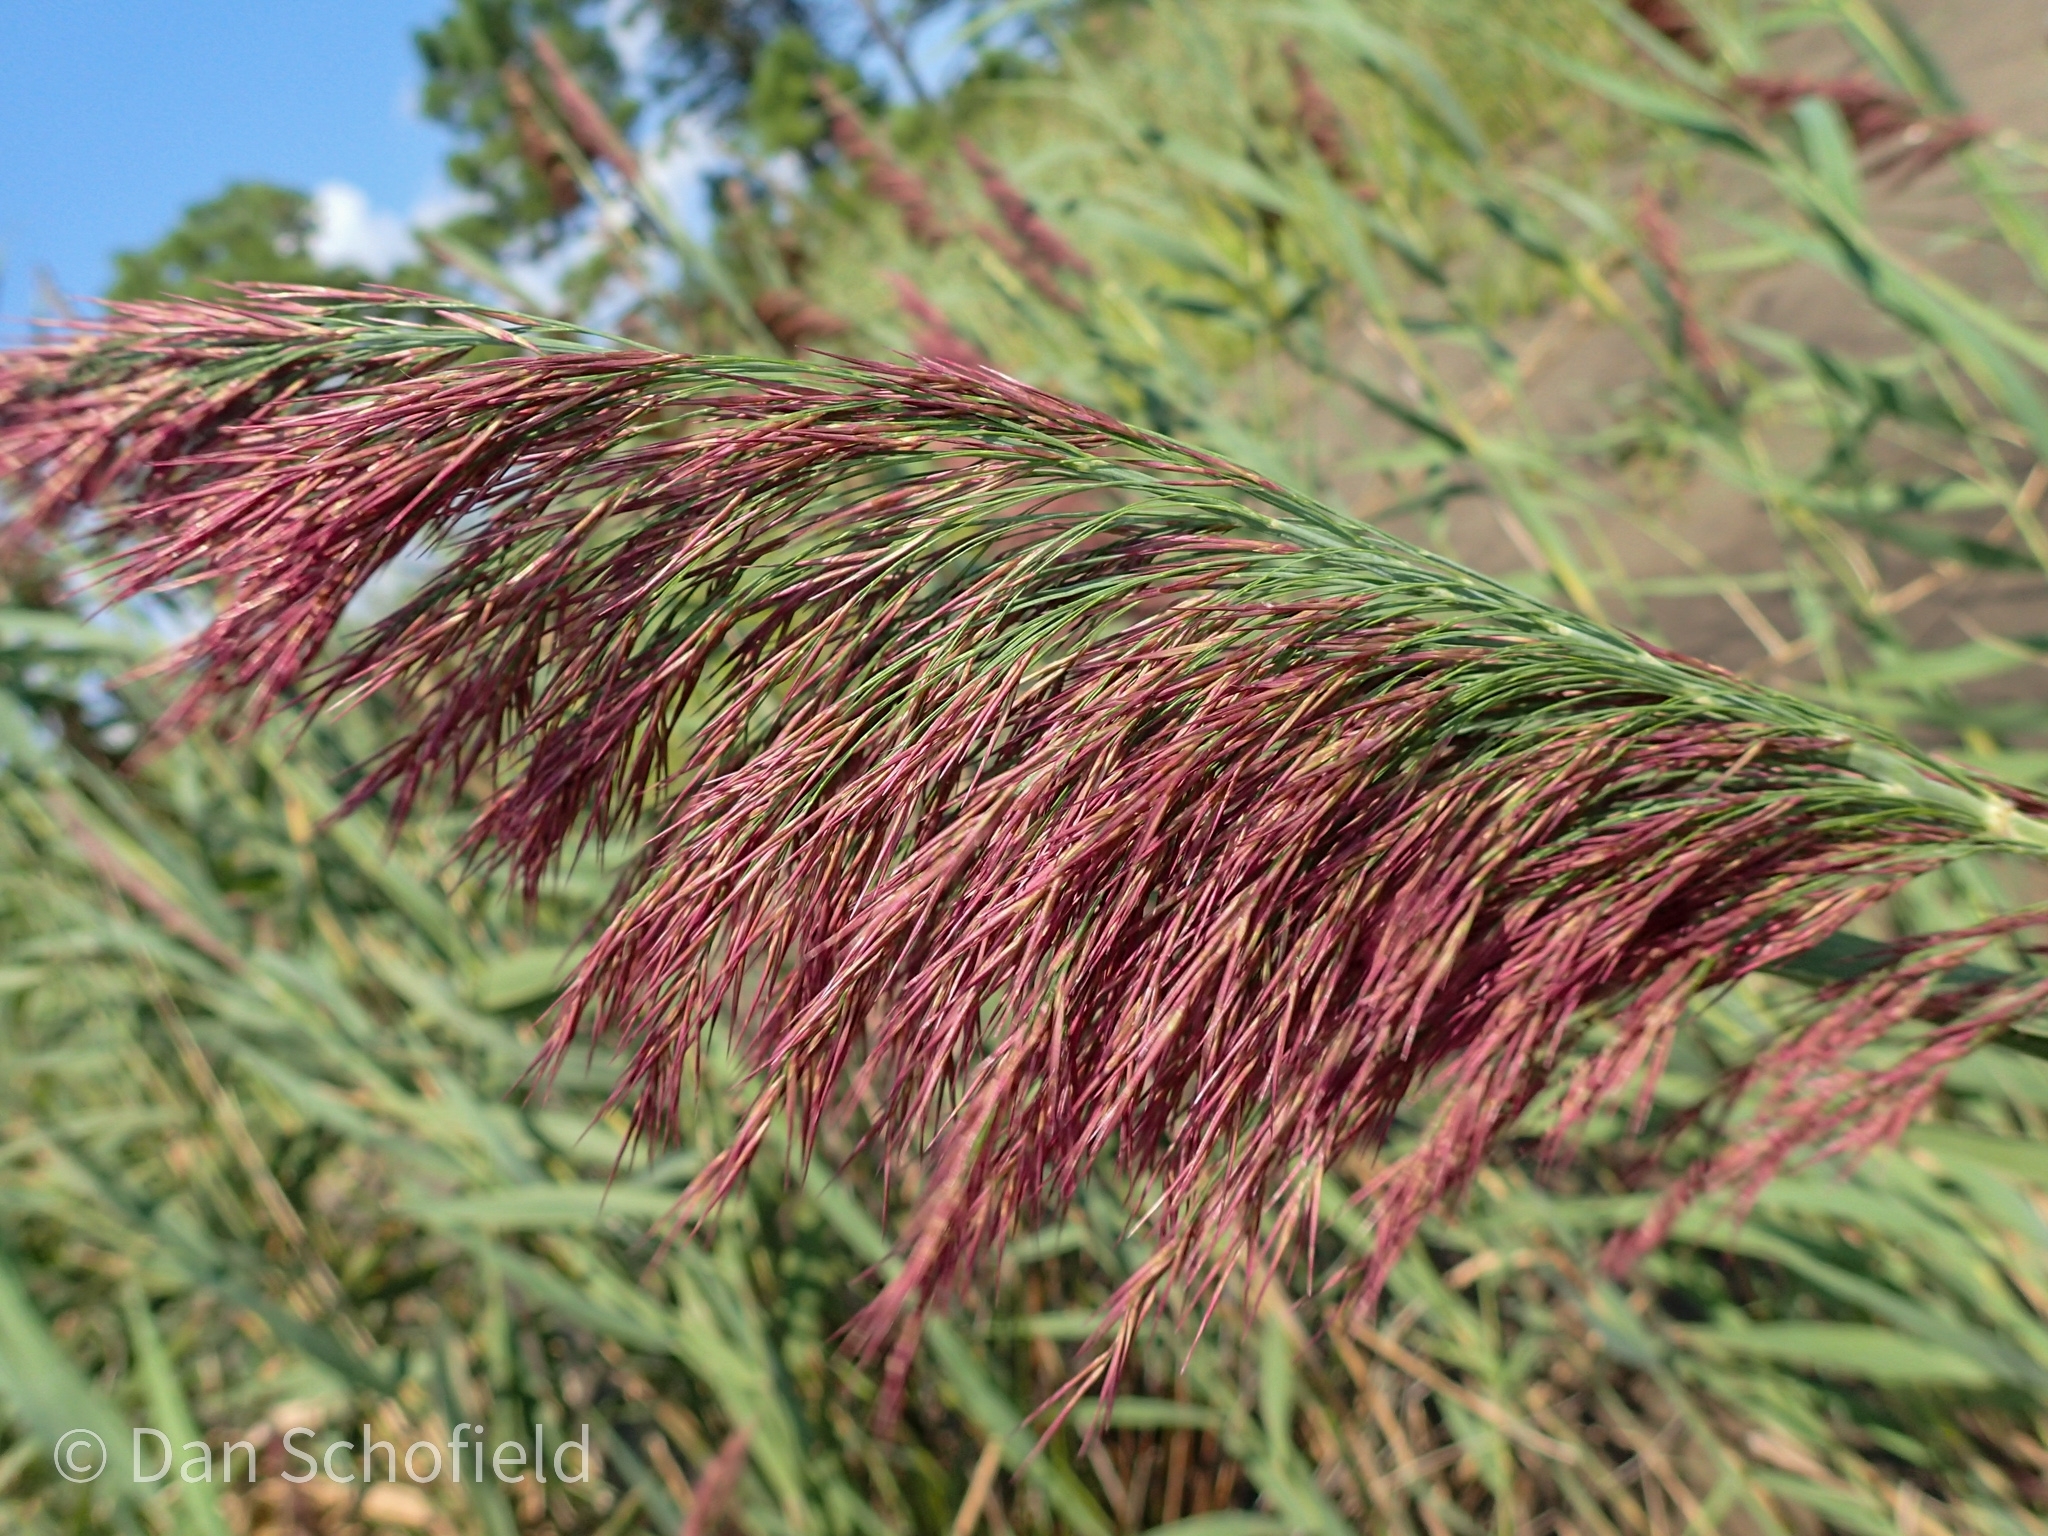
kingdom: Plantae
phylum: Tracheophyta
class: Liliopsida
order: Poales
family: Poaceae
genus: Phragmites
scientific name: Phragmites australis
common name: Common reed
